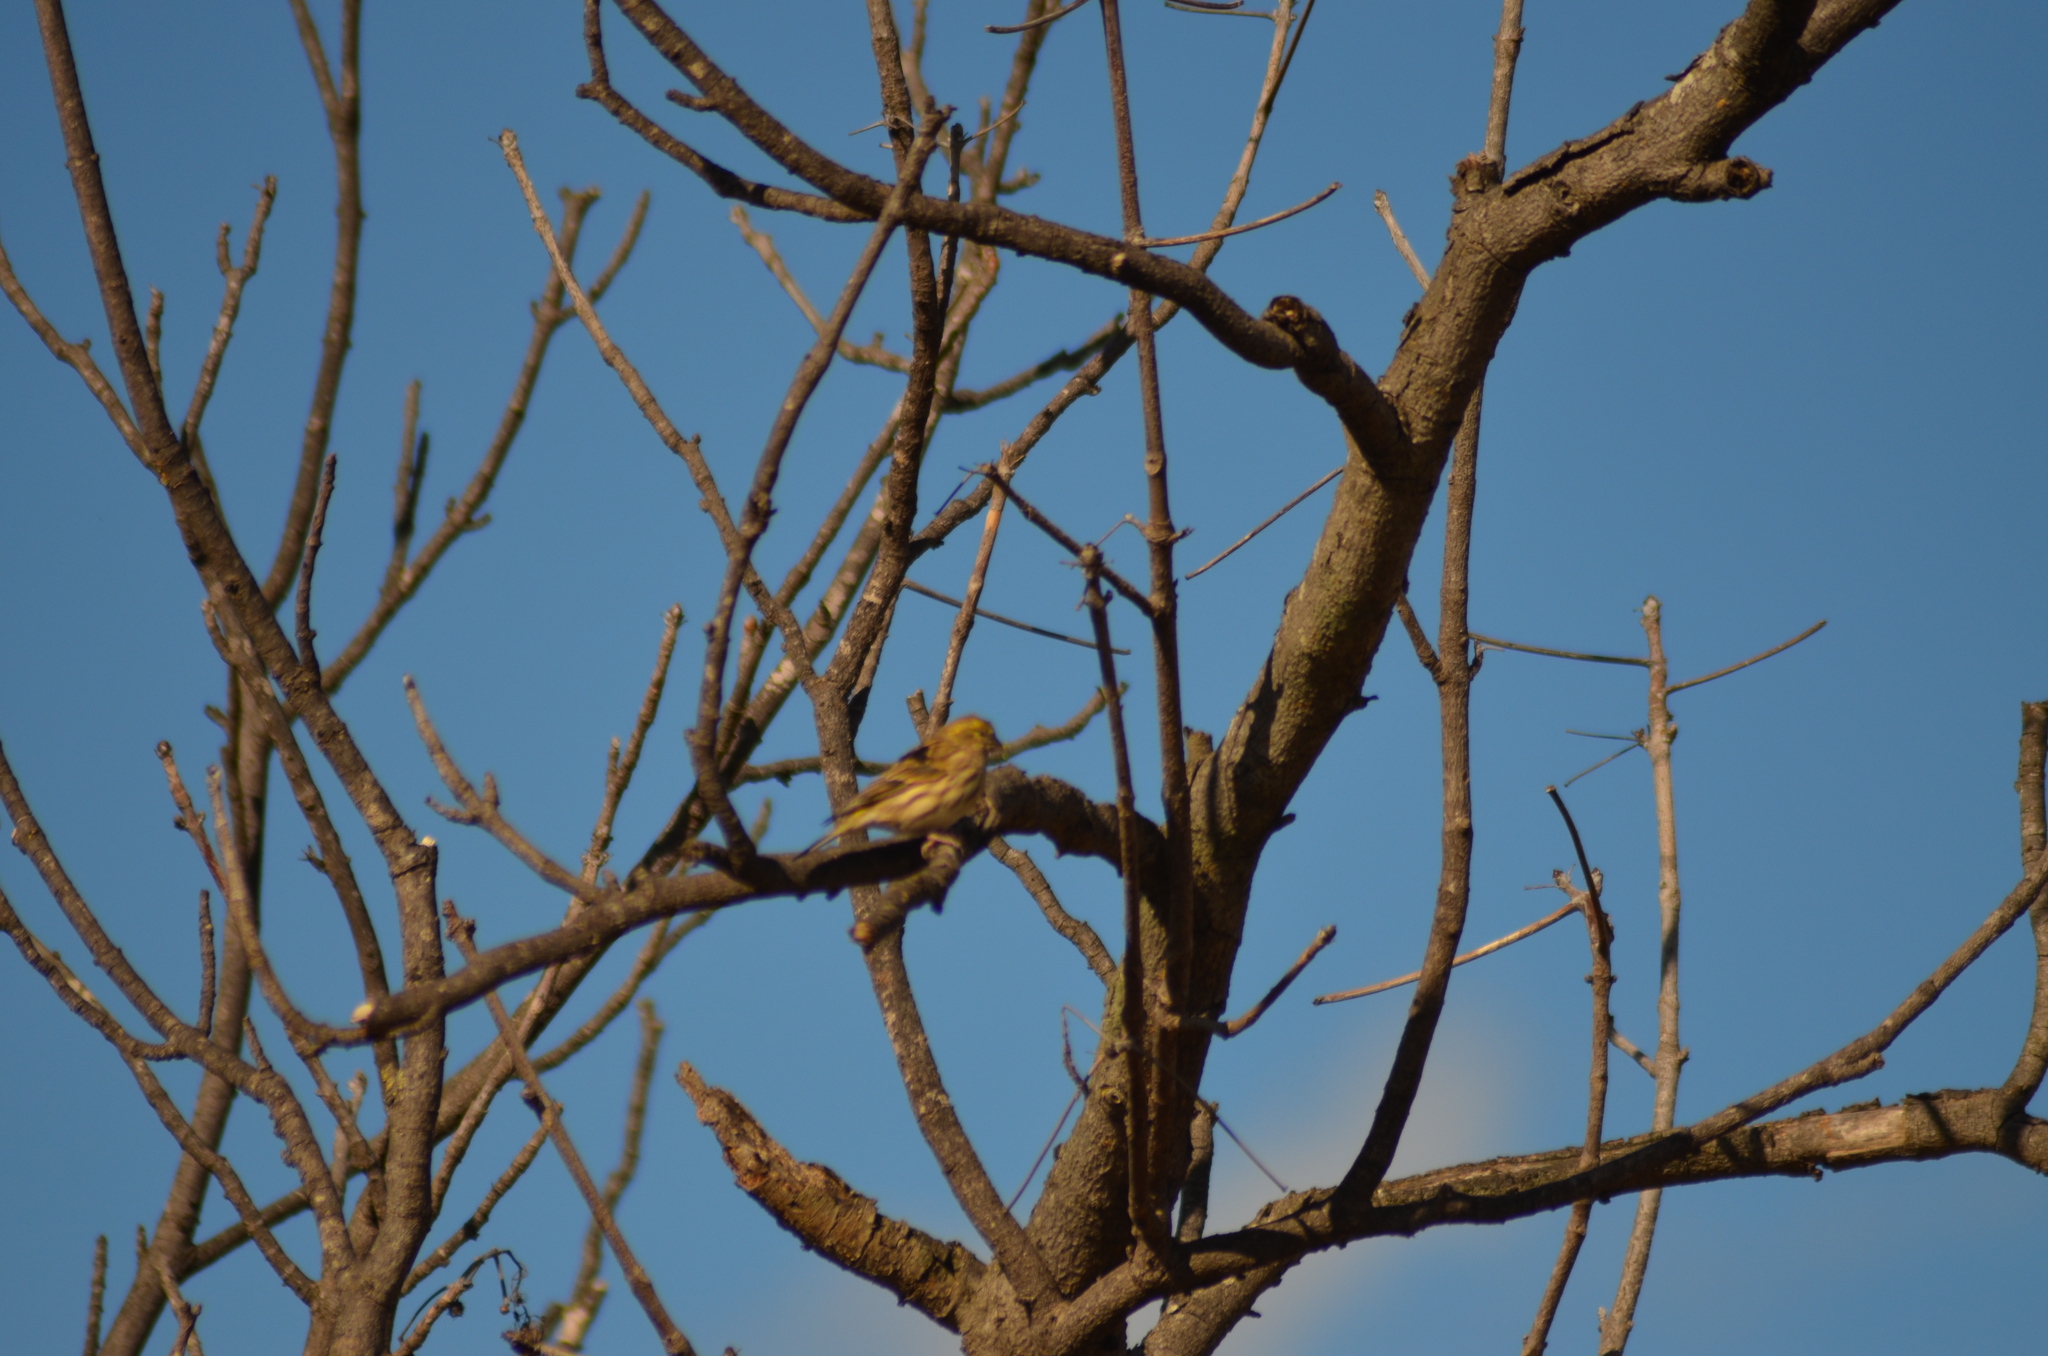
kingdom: Animalia
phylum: Chordata
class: Aves
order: Passeriformes
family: Fringillidae
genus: Serinus
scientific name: Serinus serinus
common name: European serin
